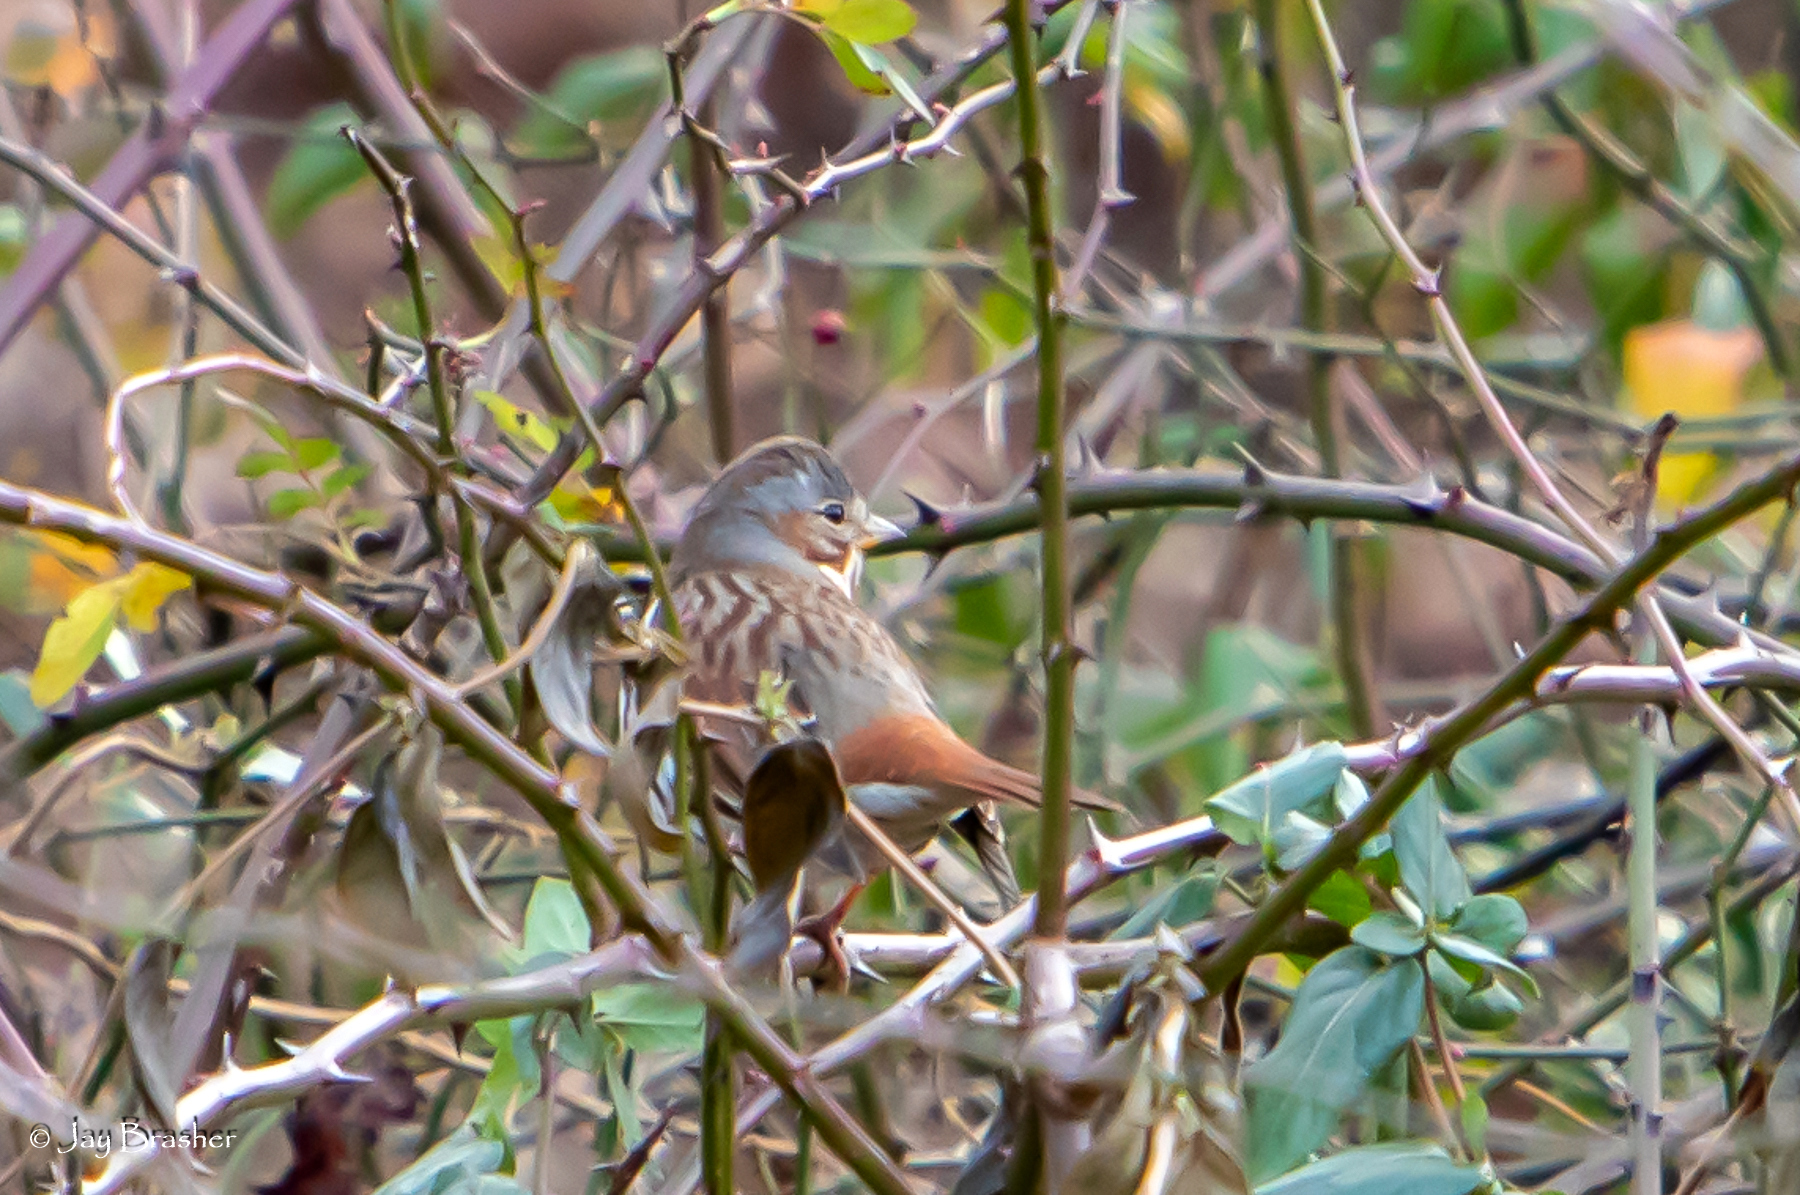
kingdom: Animalia
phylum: Chordata
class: Aves
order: Passeriformes
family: Passerellidae
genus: Passerella
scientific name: Passerella iliaca
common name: Fox sparrow
